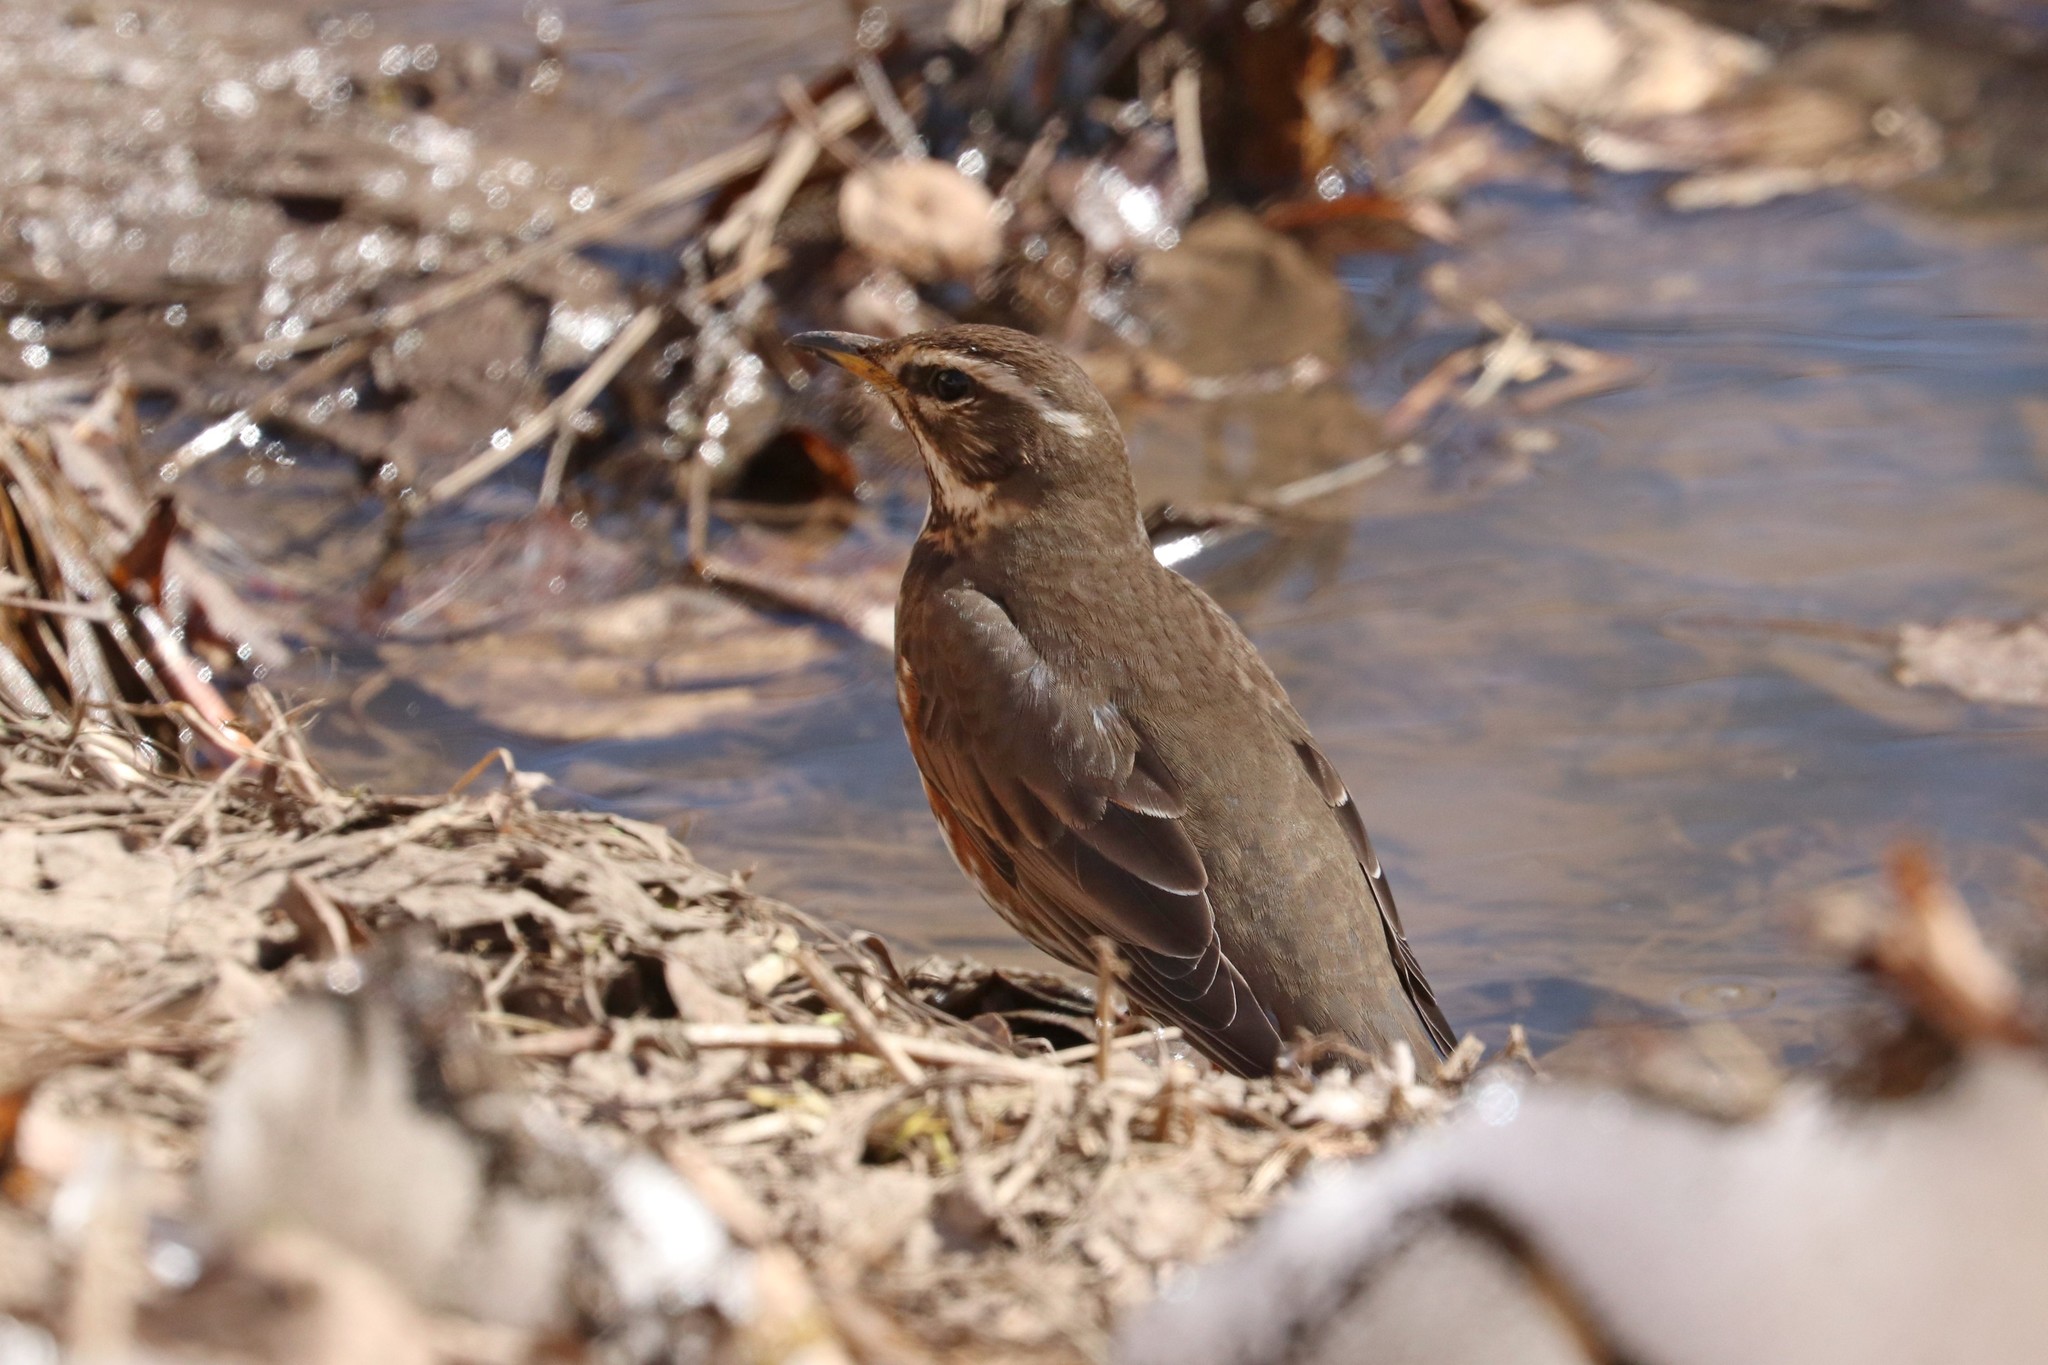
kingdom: Animalia
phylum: Chordata
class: Aves
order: Passeriformes
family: Turdidae
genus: Turdus
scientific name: Turdus iliacus
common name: Redwing
